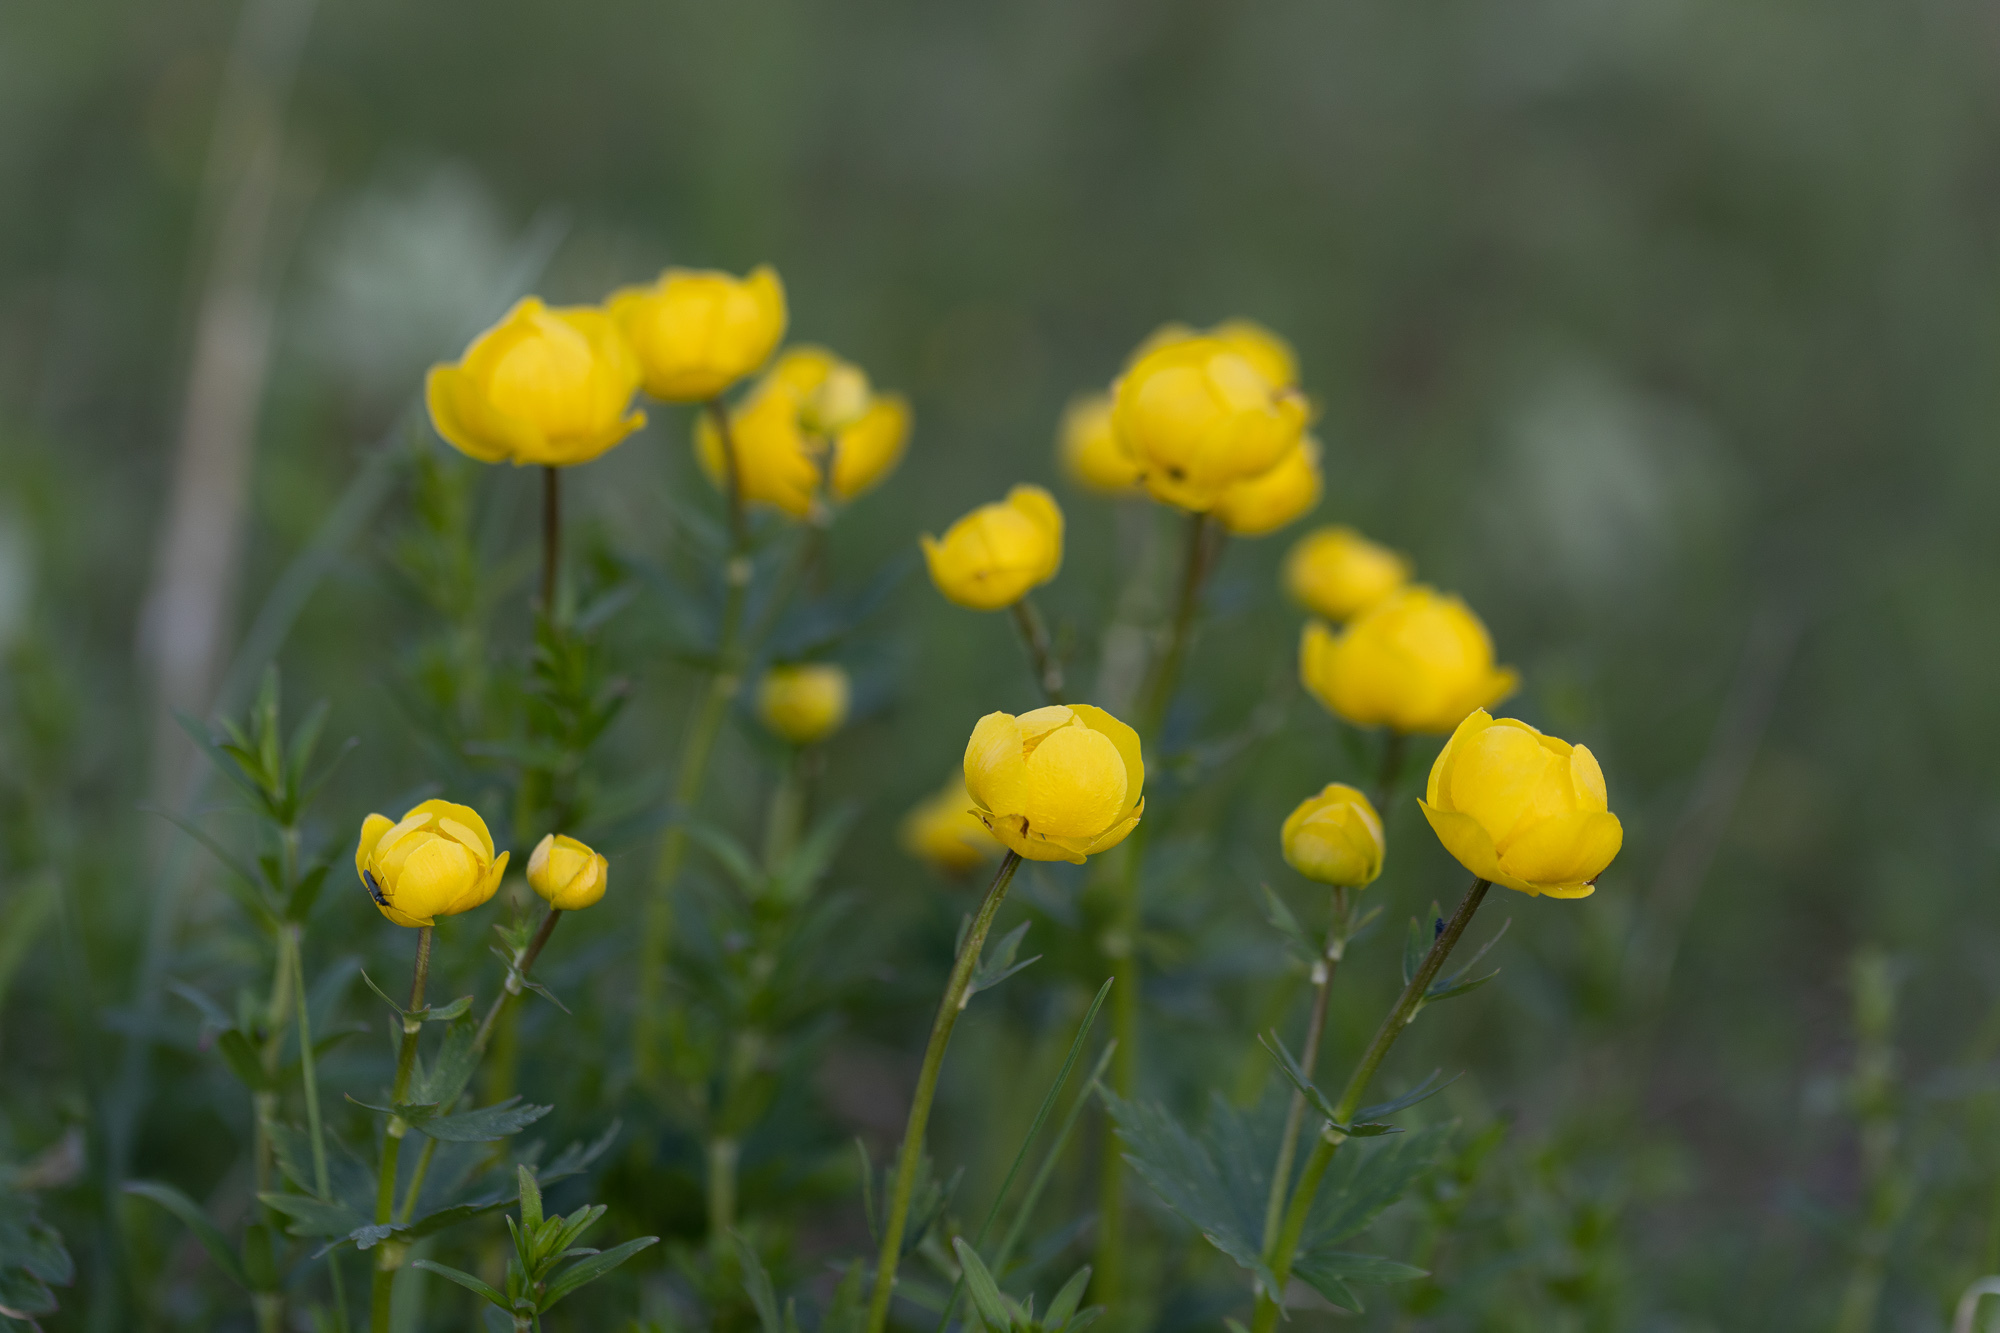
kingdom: Plantae
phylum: Tracheophyta
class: Magnoliopsida
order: Ranunculales
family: Ranunculaceae
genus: Trollius
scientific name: Trollius europaeus
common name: European globeflower
